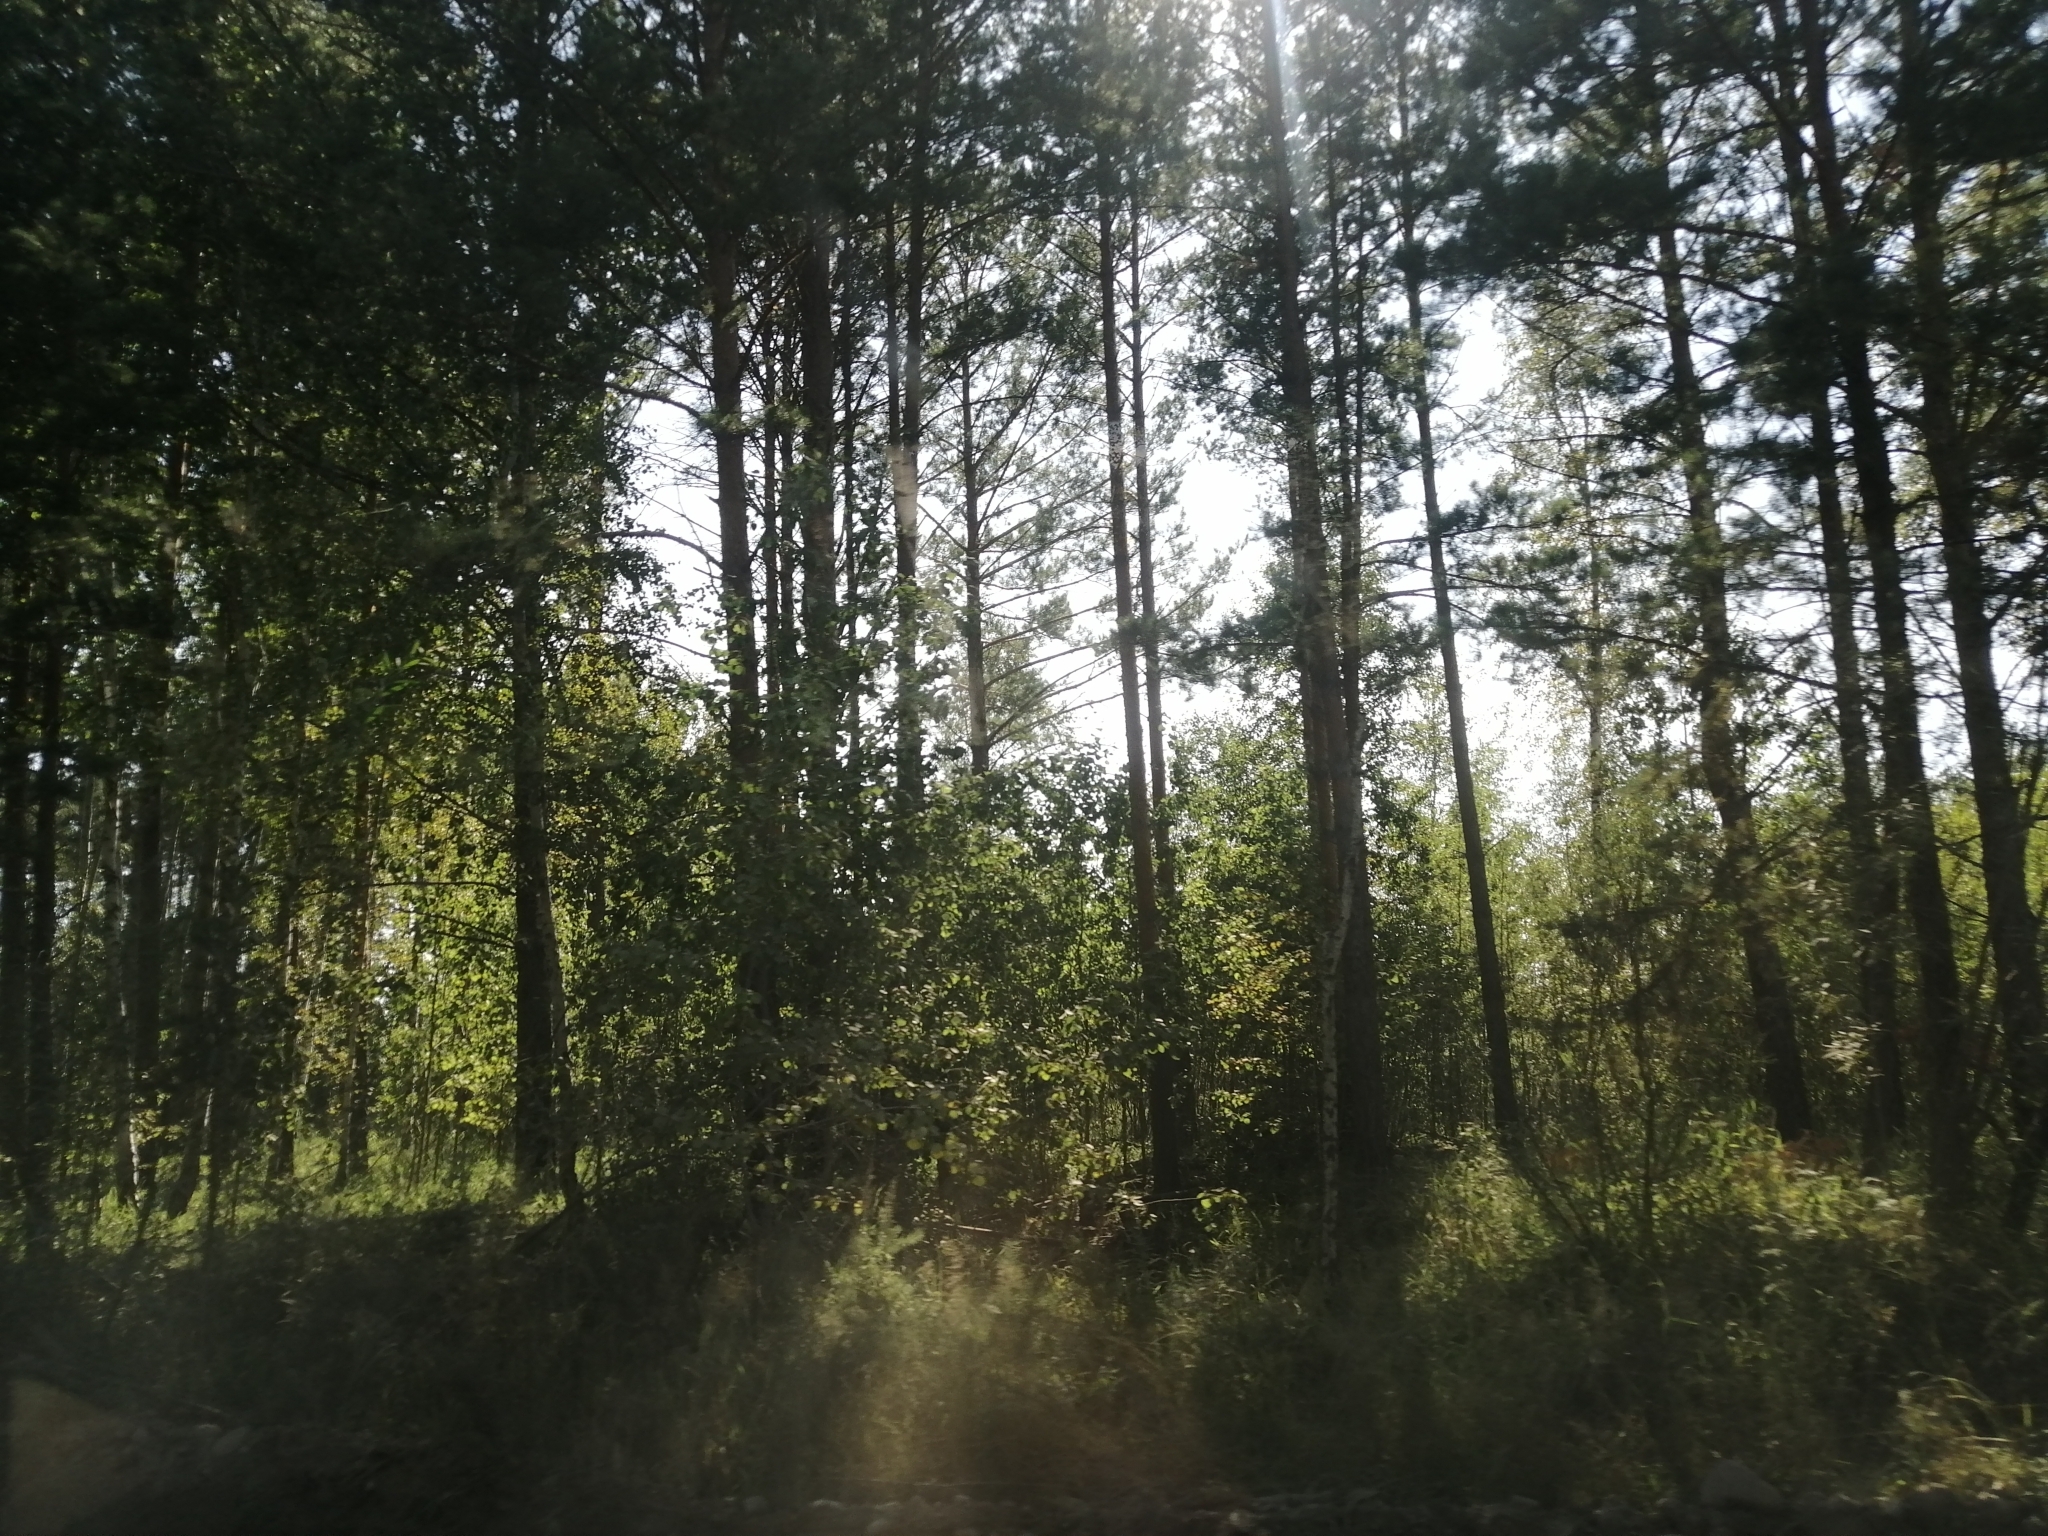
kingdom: Plantae
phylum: Tracheophyta
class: Pinopsida
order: Pinales
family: Pinaceae
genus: Pinus
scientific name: Pinus sylvestris
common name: Scots pine
